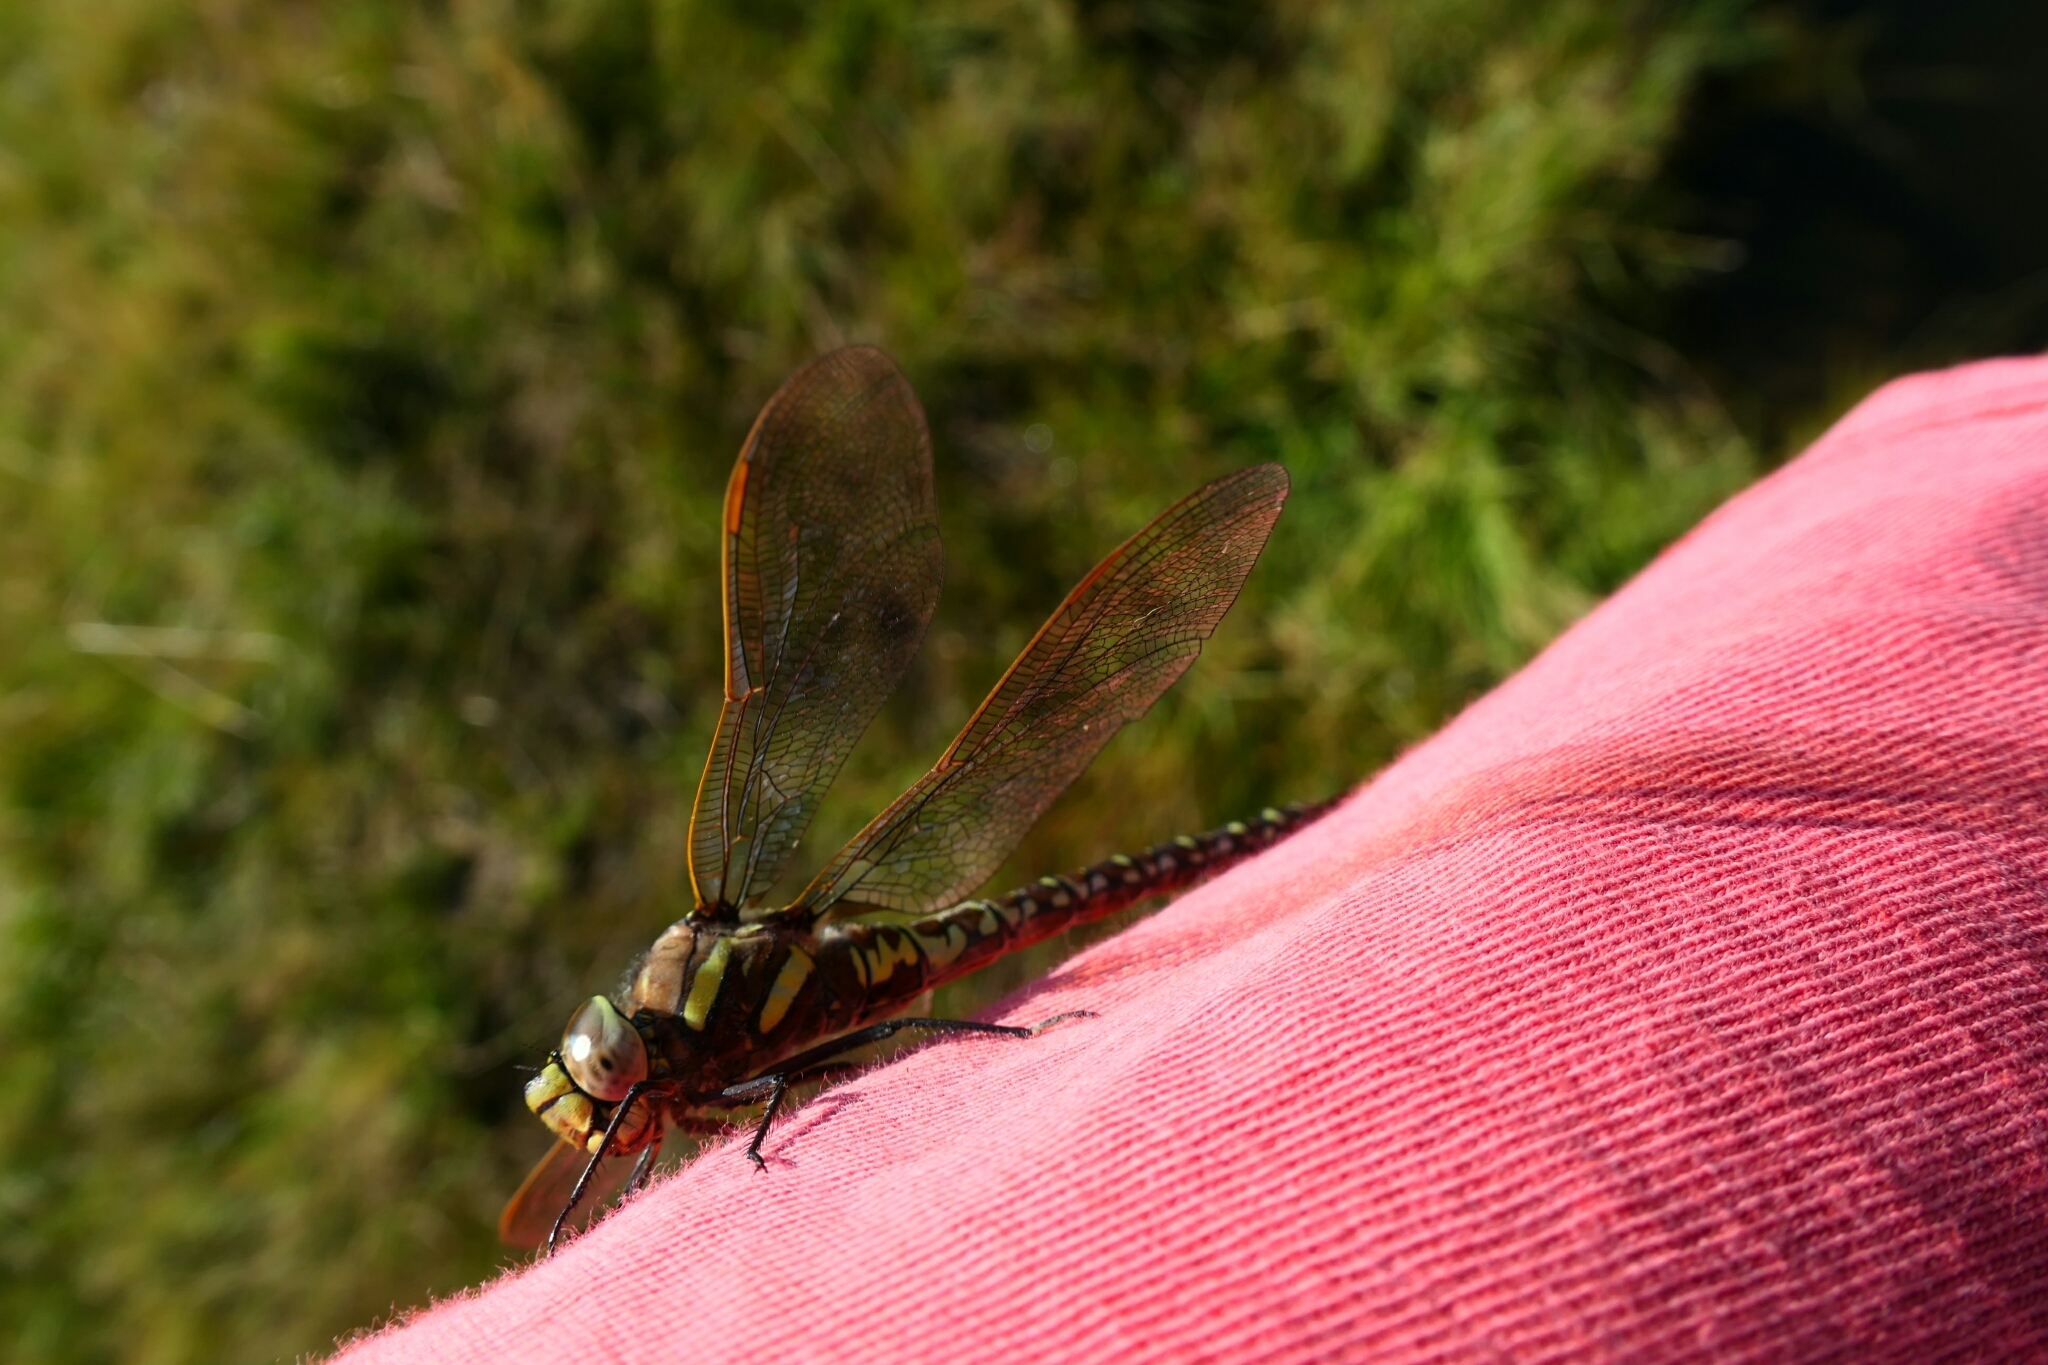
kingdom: Animalia
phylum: Arthropoda
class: Insecta
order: Odonata
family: Aeshnidae
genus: Aeshna
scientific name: Aeshna juncea
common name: Moorland hawker
